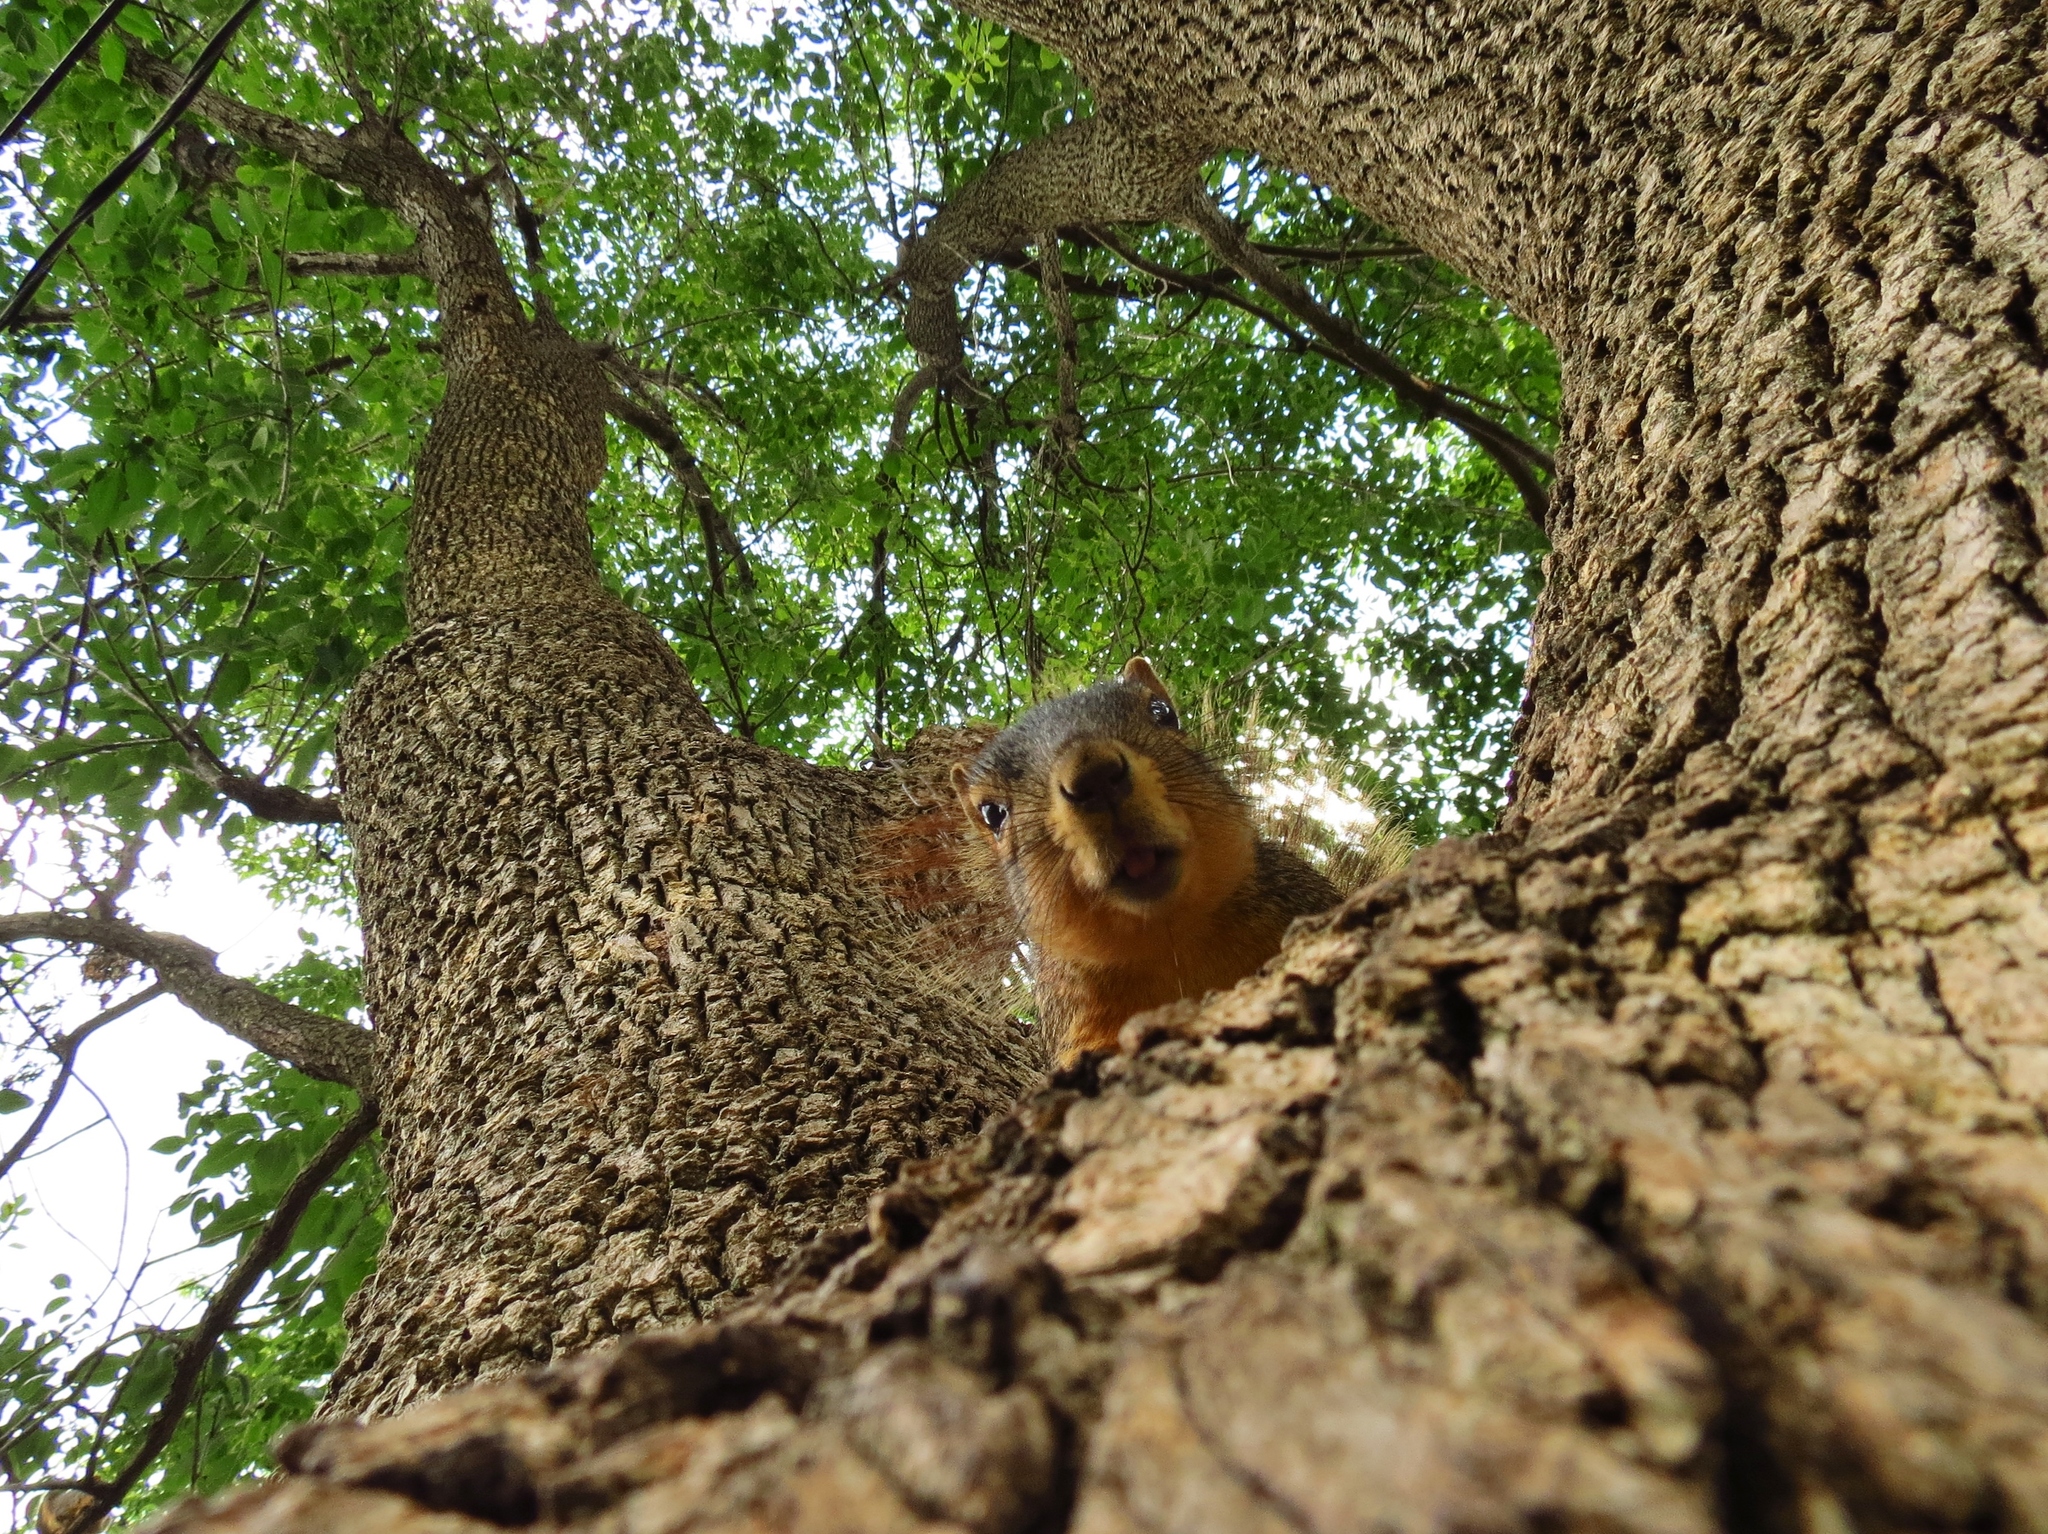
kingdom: Animalia
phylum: Chordata
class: Mammalia
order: Rodentia
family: Sciuridae
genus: Sciurus
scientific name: Sciurus niger
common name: Fox squirrel
